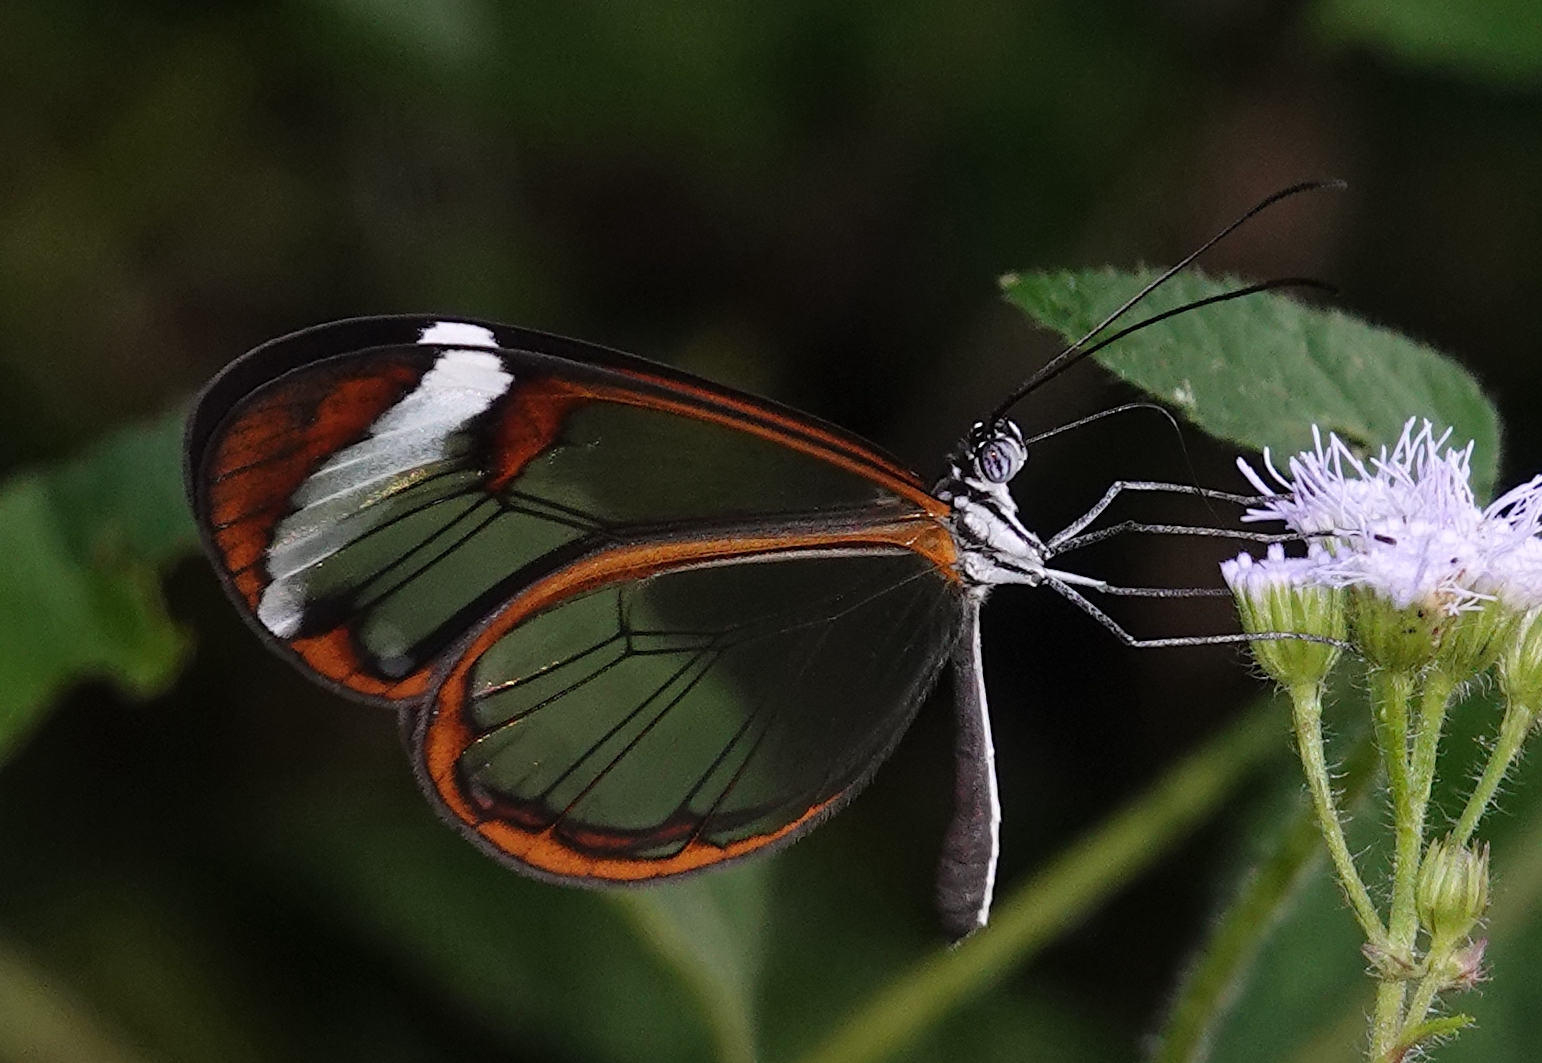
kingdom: Animalia
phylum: Arthropoda
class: Insecta
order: Lepidoptera
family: Nymphalidae
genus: Greta
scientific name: Greta morgane
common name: Thick-tipped greta
